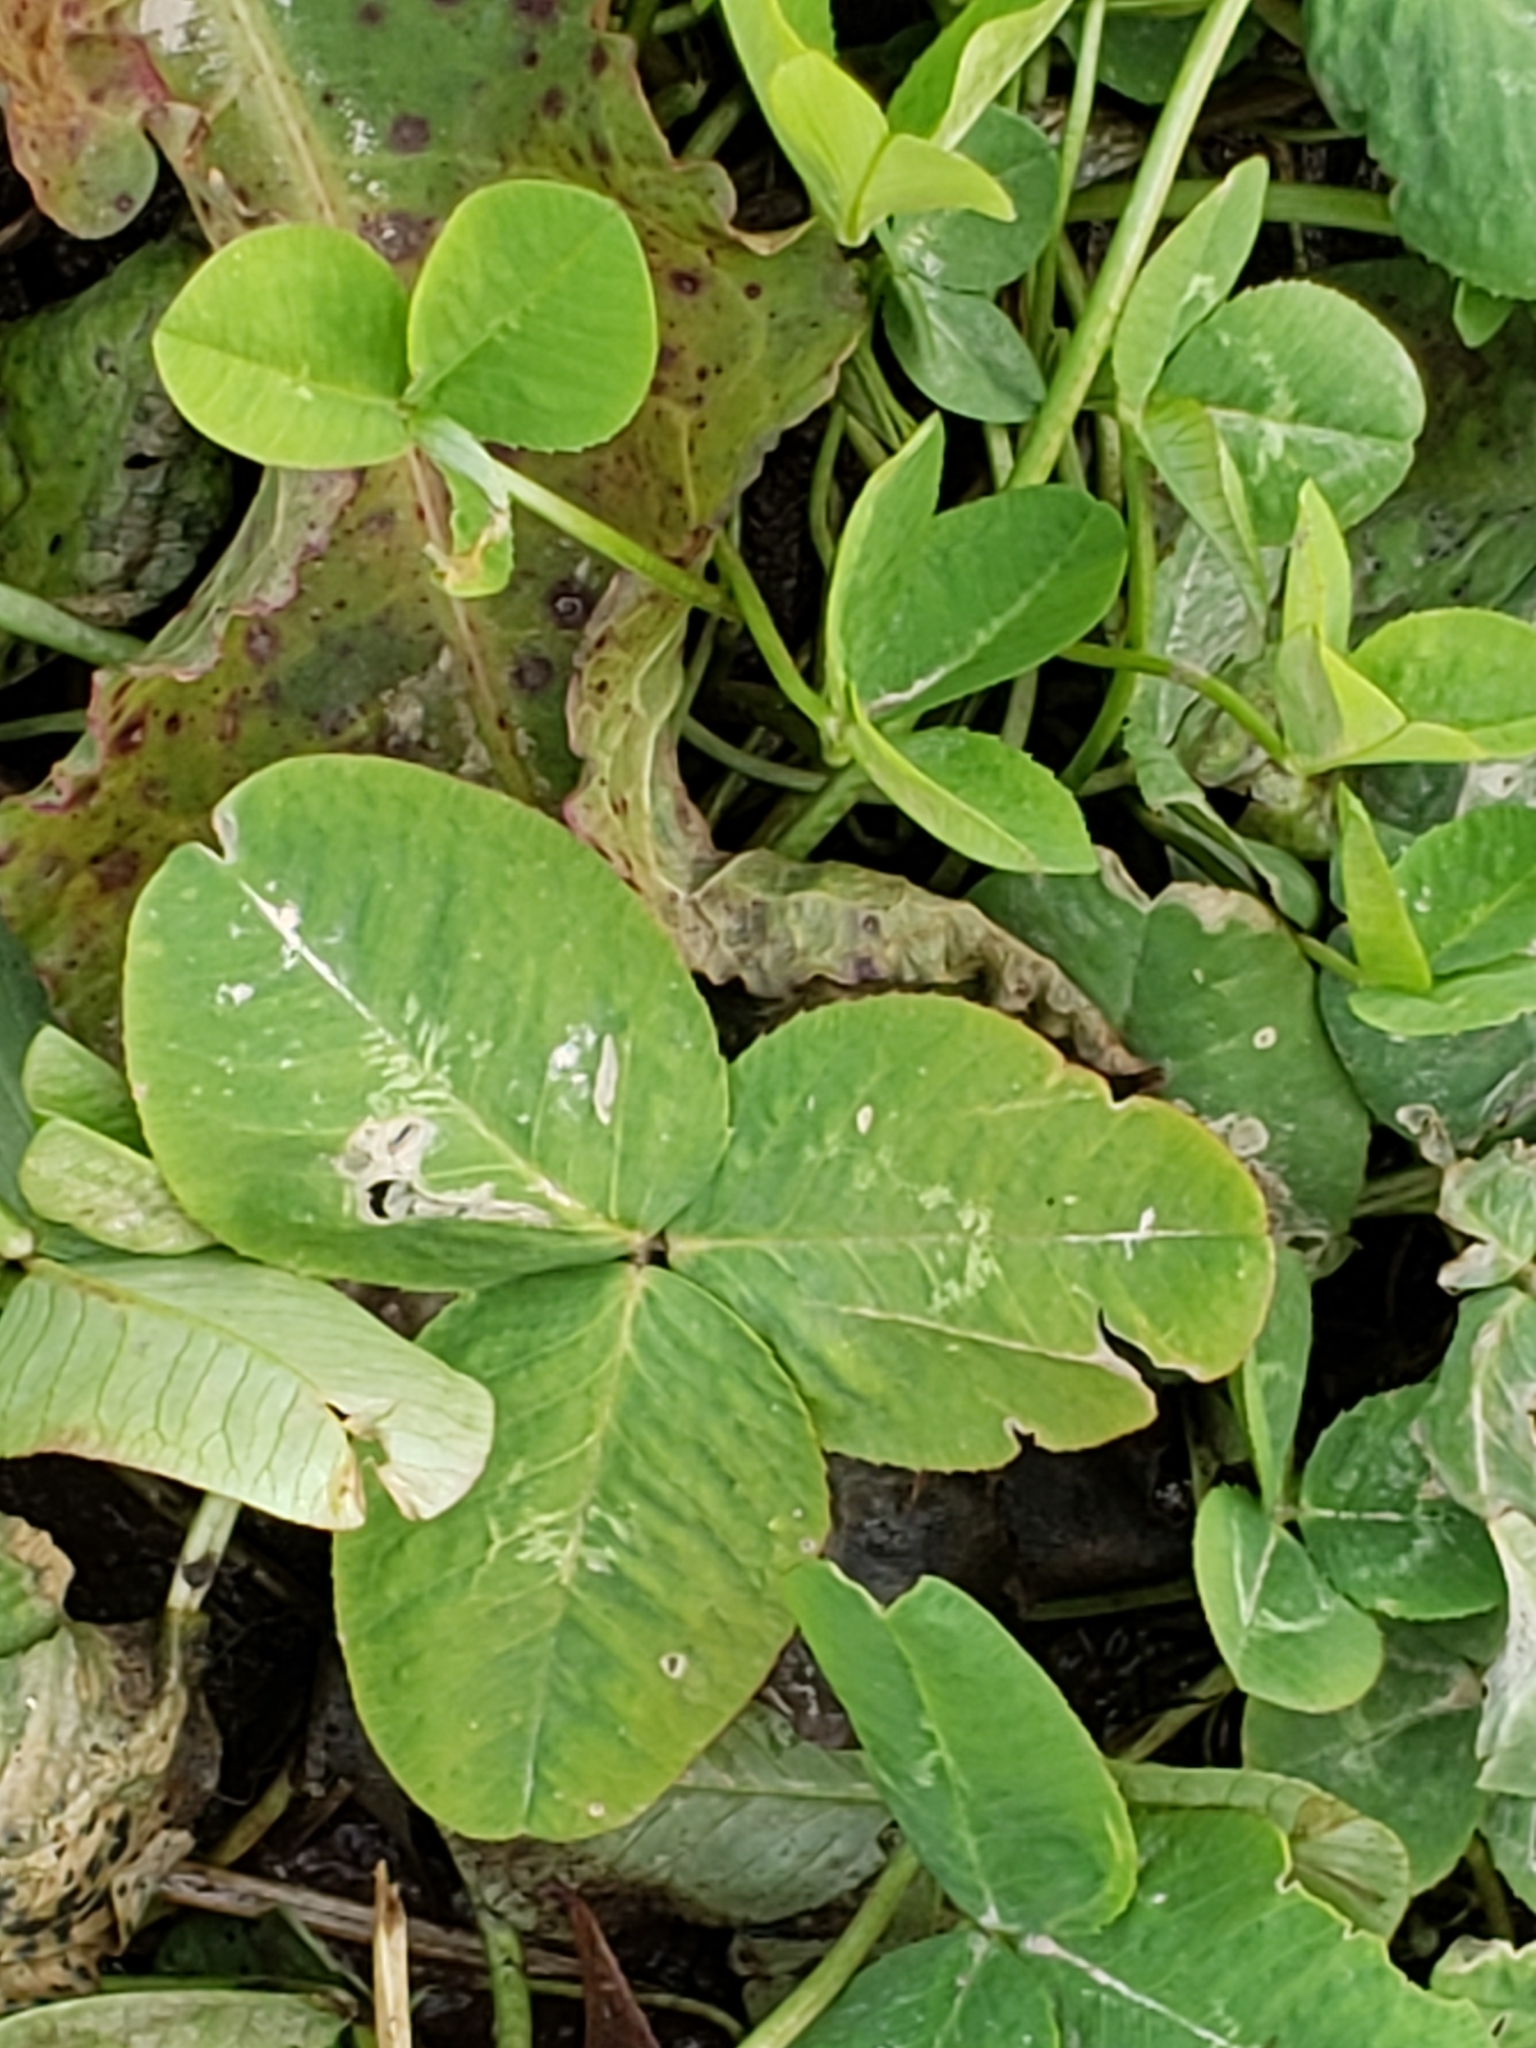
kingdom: Plantae
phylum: Tracheophyta
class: Magnoliopsida
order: Fabales
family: Fabaceae
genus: Trifolium
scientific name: Trifolium repens
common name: White clover
